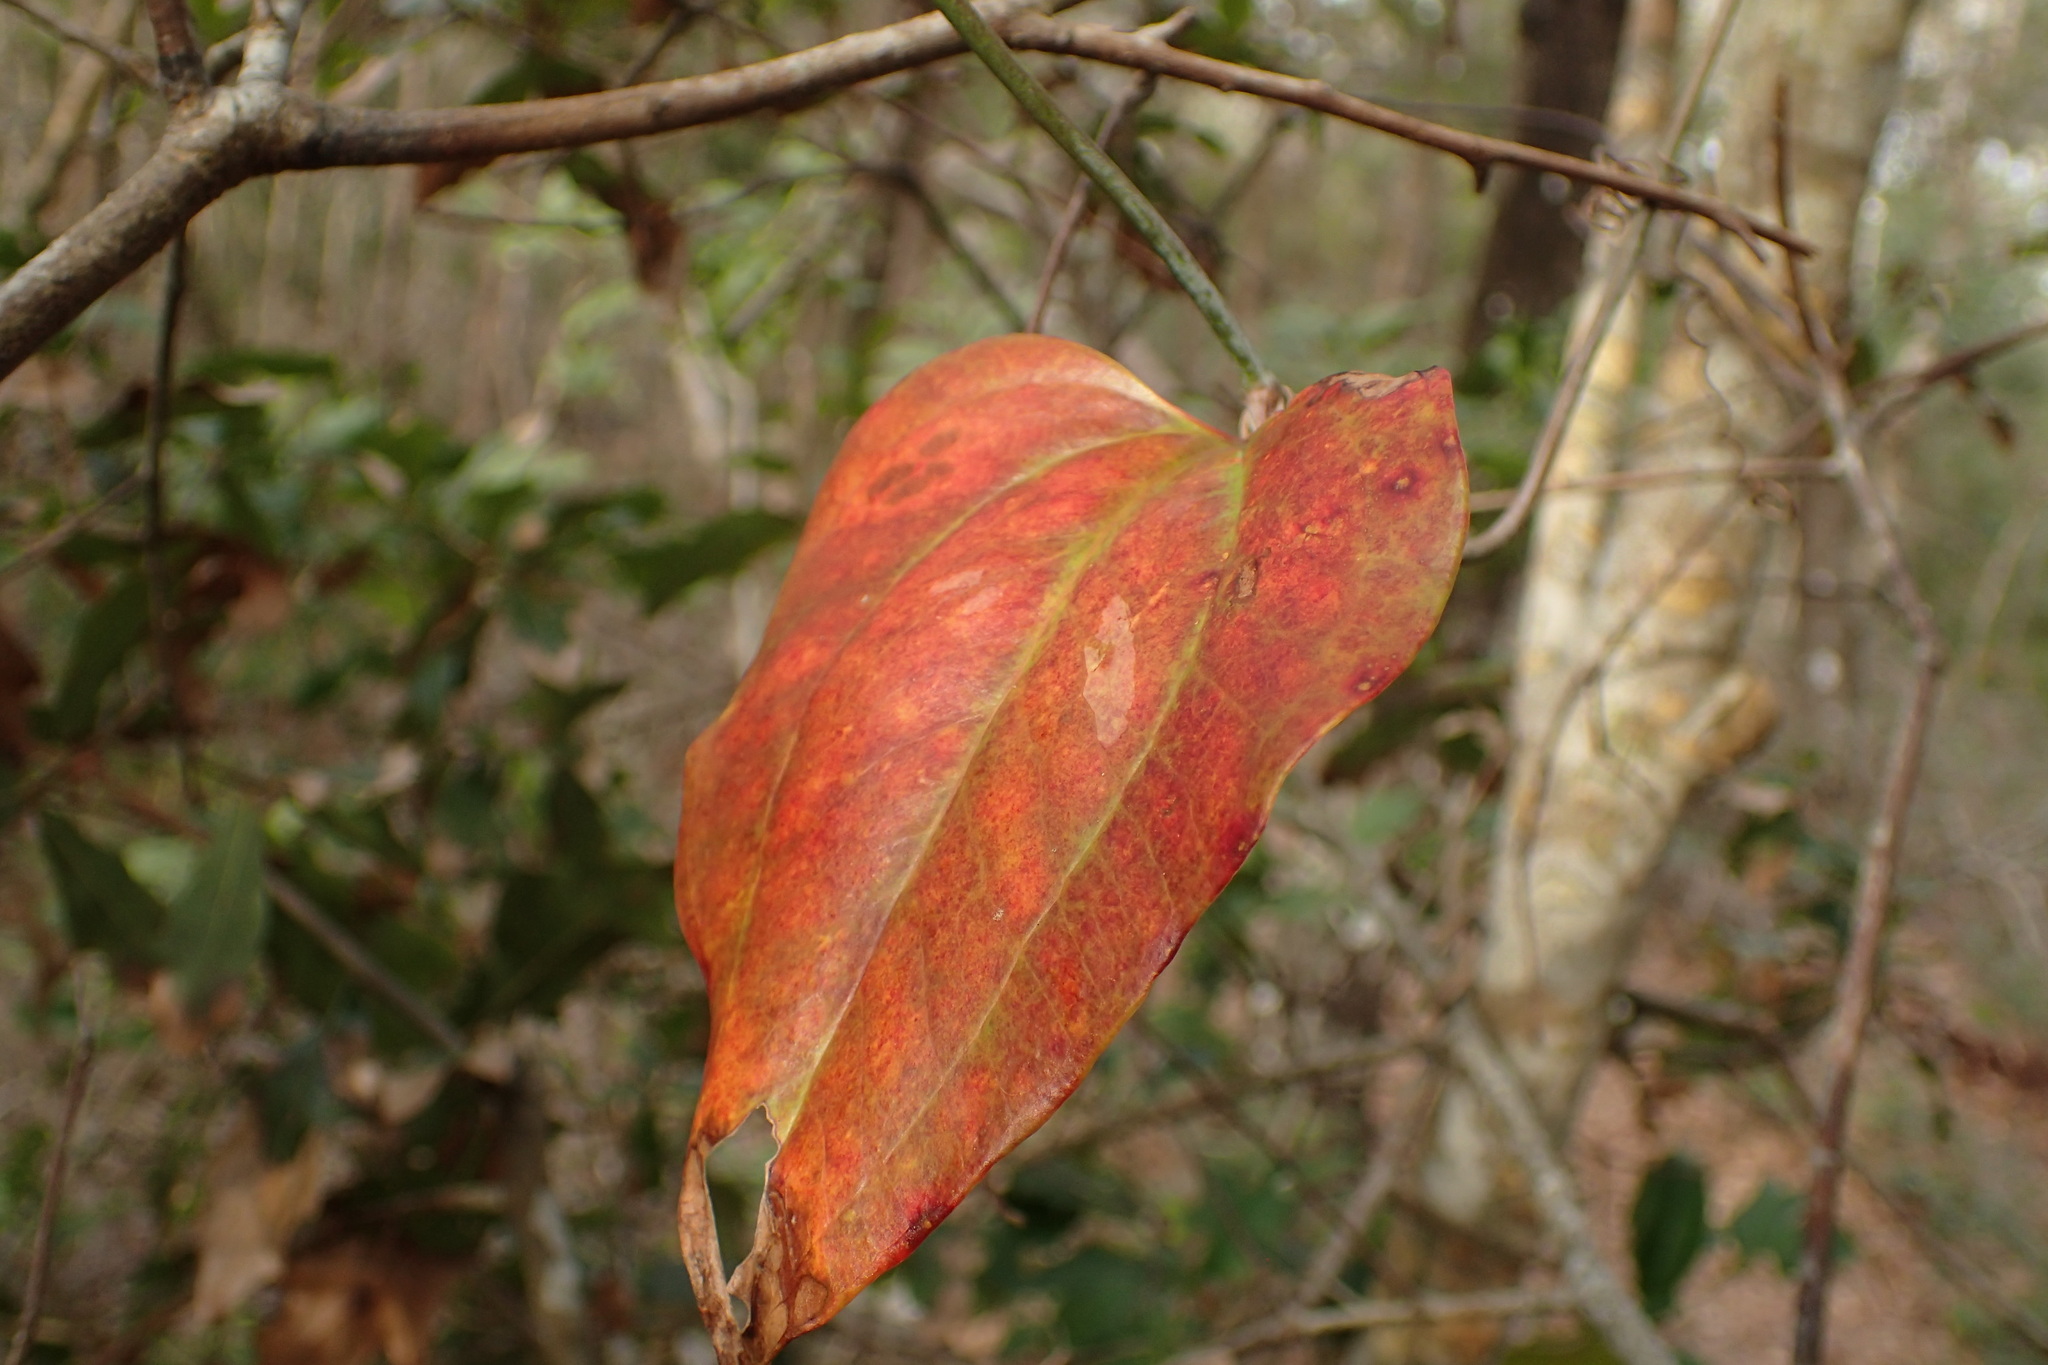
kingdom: Plantae
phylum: Tracheophyta
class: Liliopsida
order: Liliales
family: Smilacaceae
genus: Smilax
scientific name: Smilax glauca
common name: Cat greenbrier
